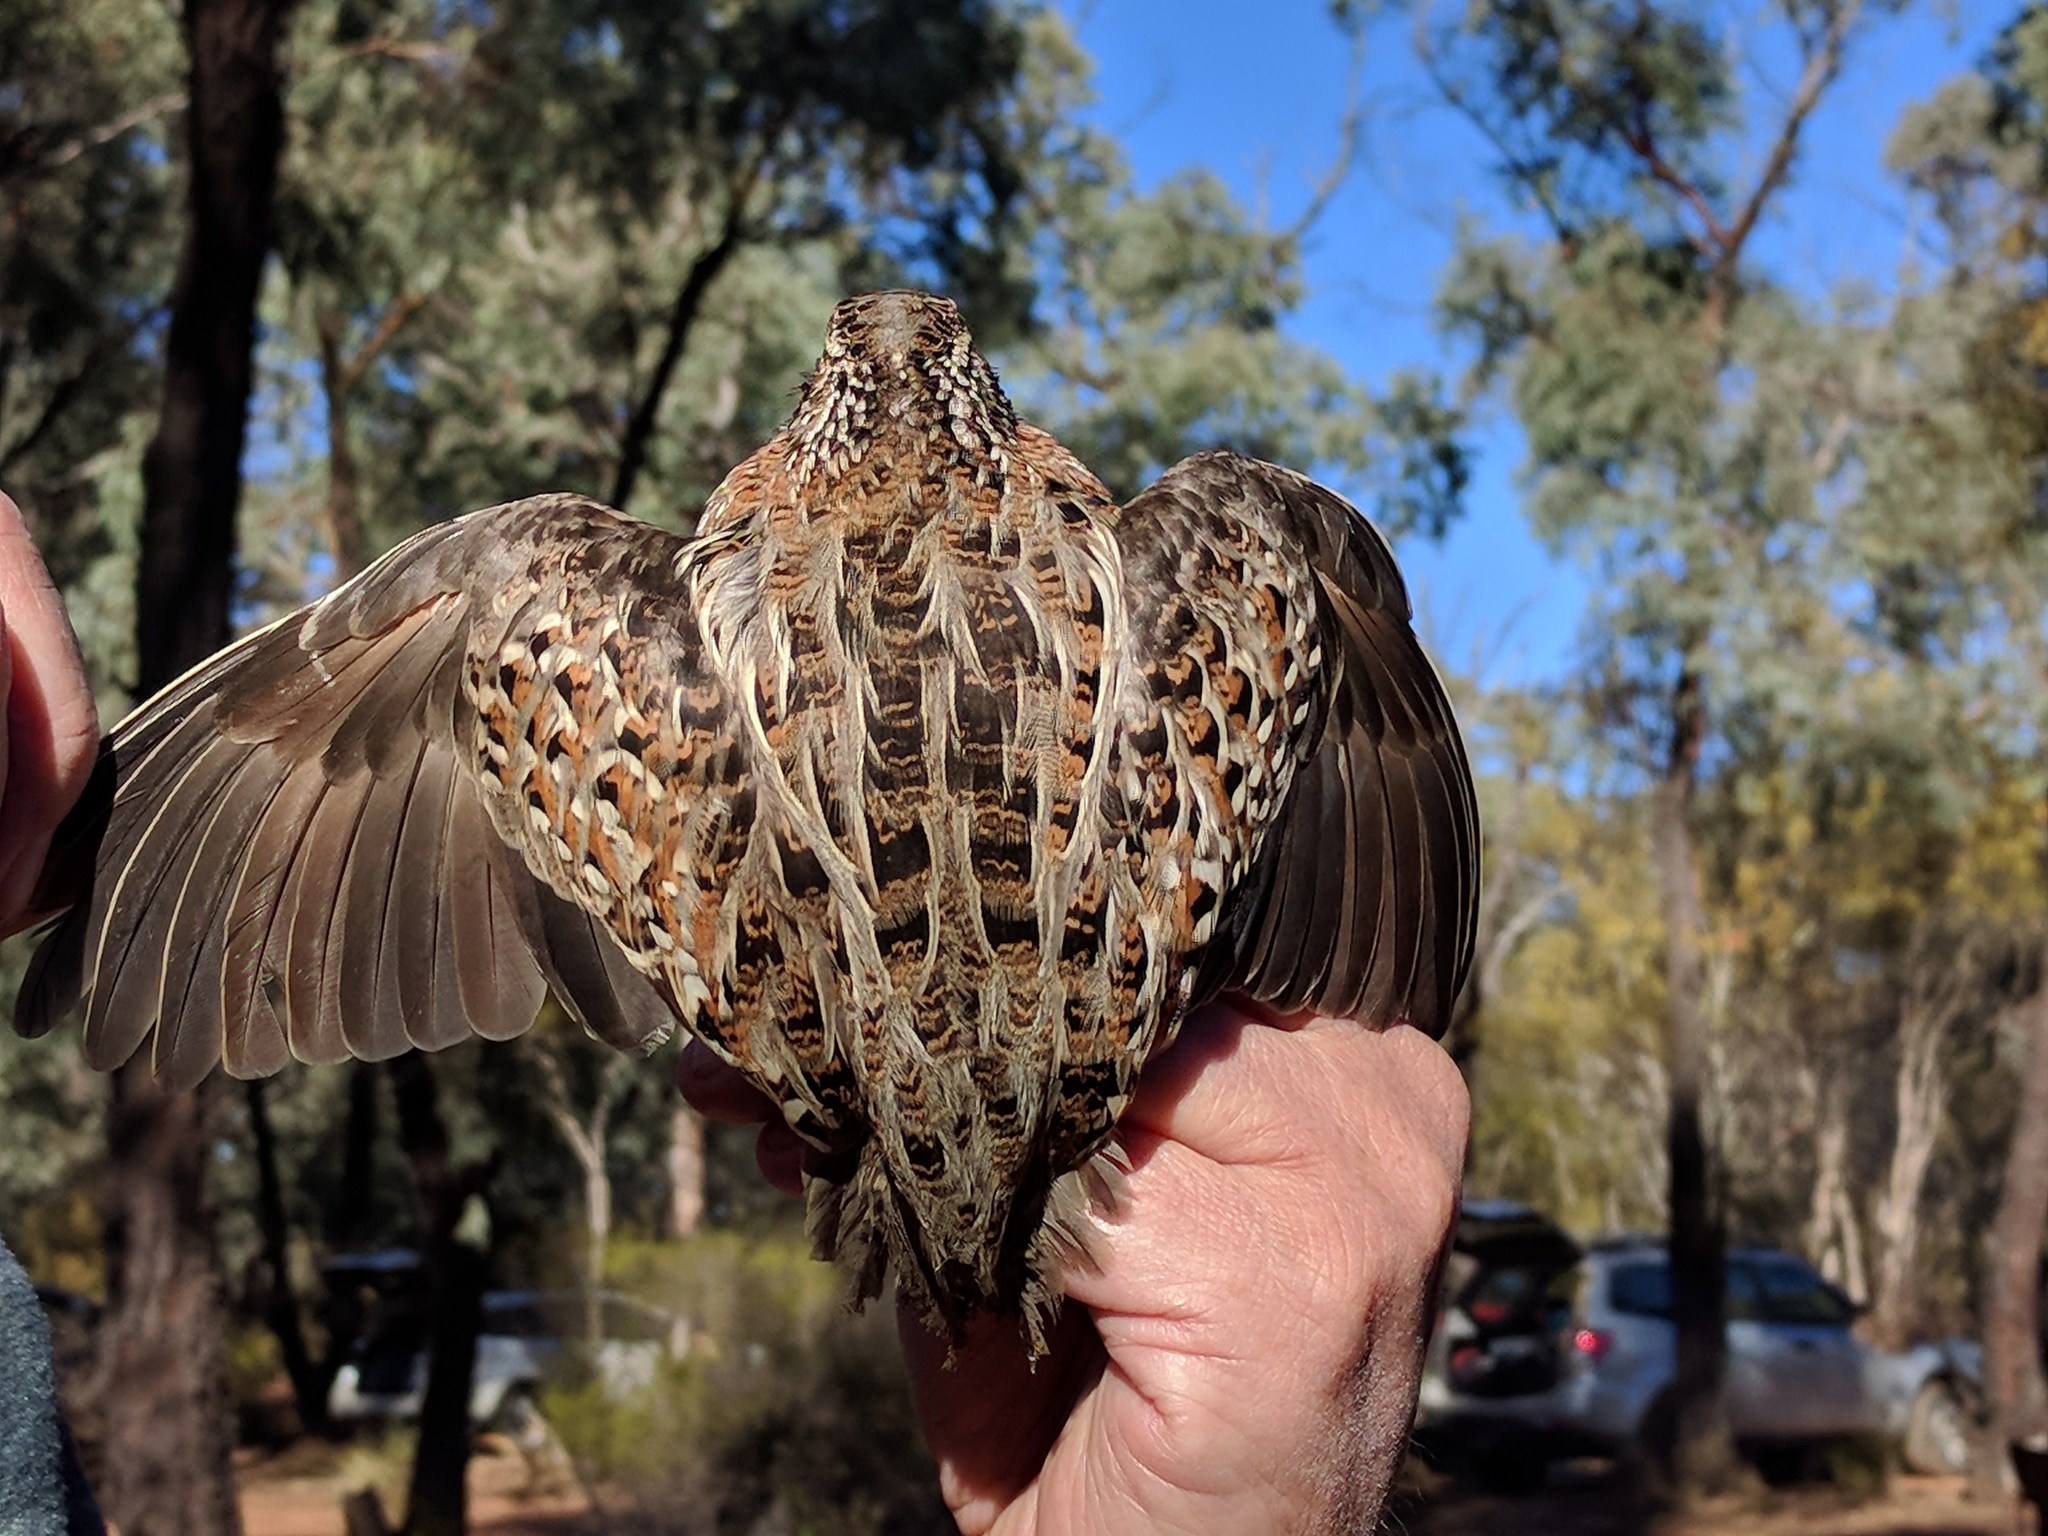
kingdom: Animalia
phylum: Chordata
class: Aves
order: Charadriiformes
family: Turnicidae
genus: Turnix
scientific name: Turnix varius
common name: Painted buttonquail
